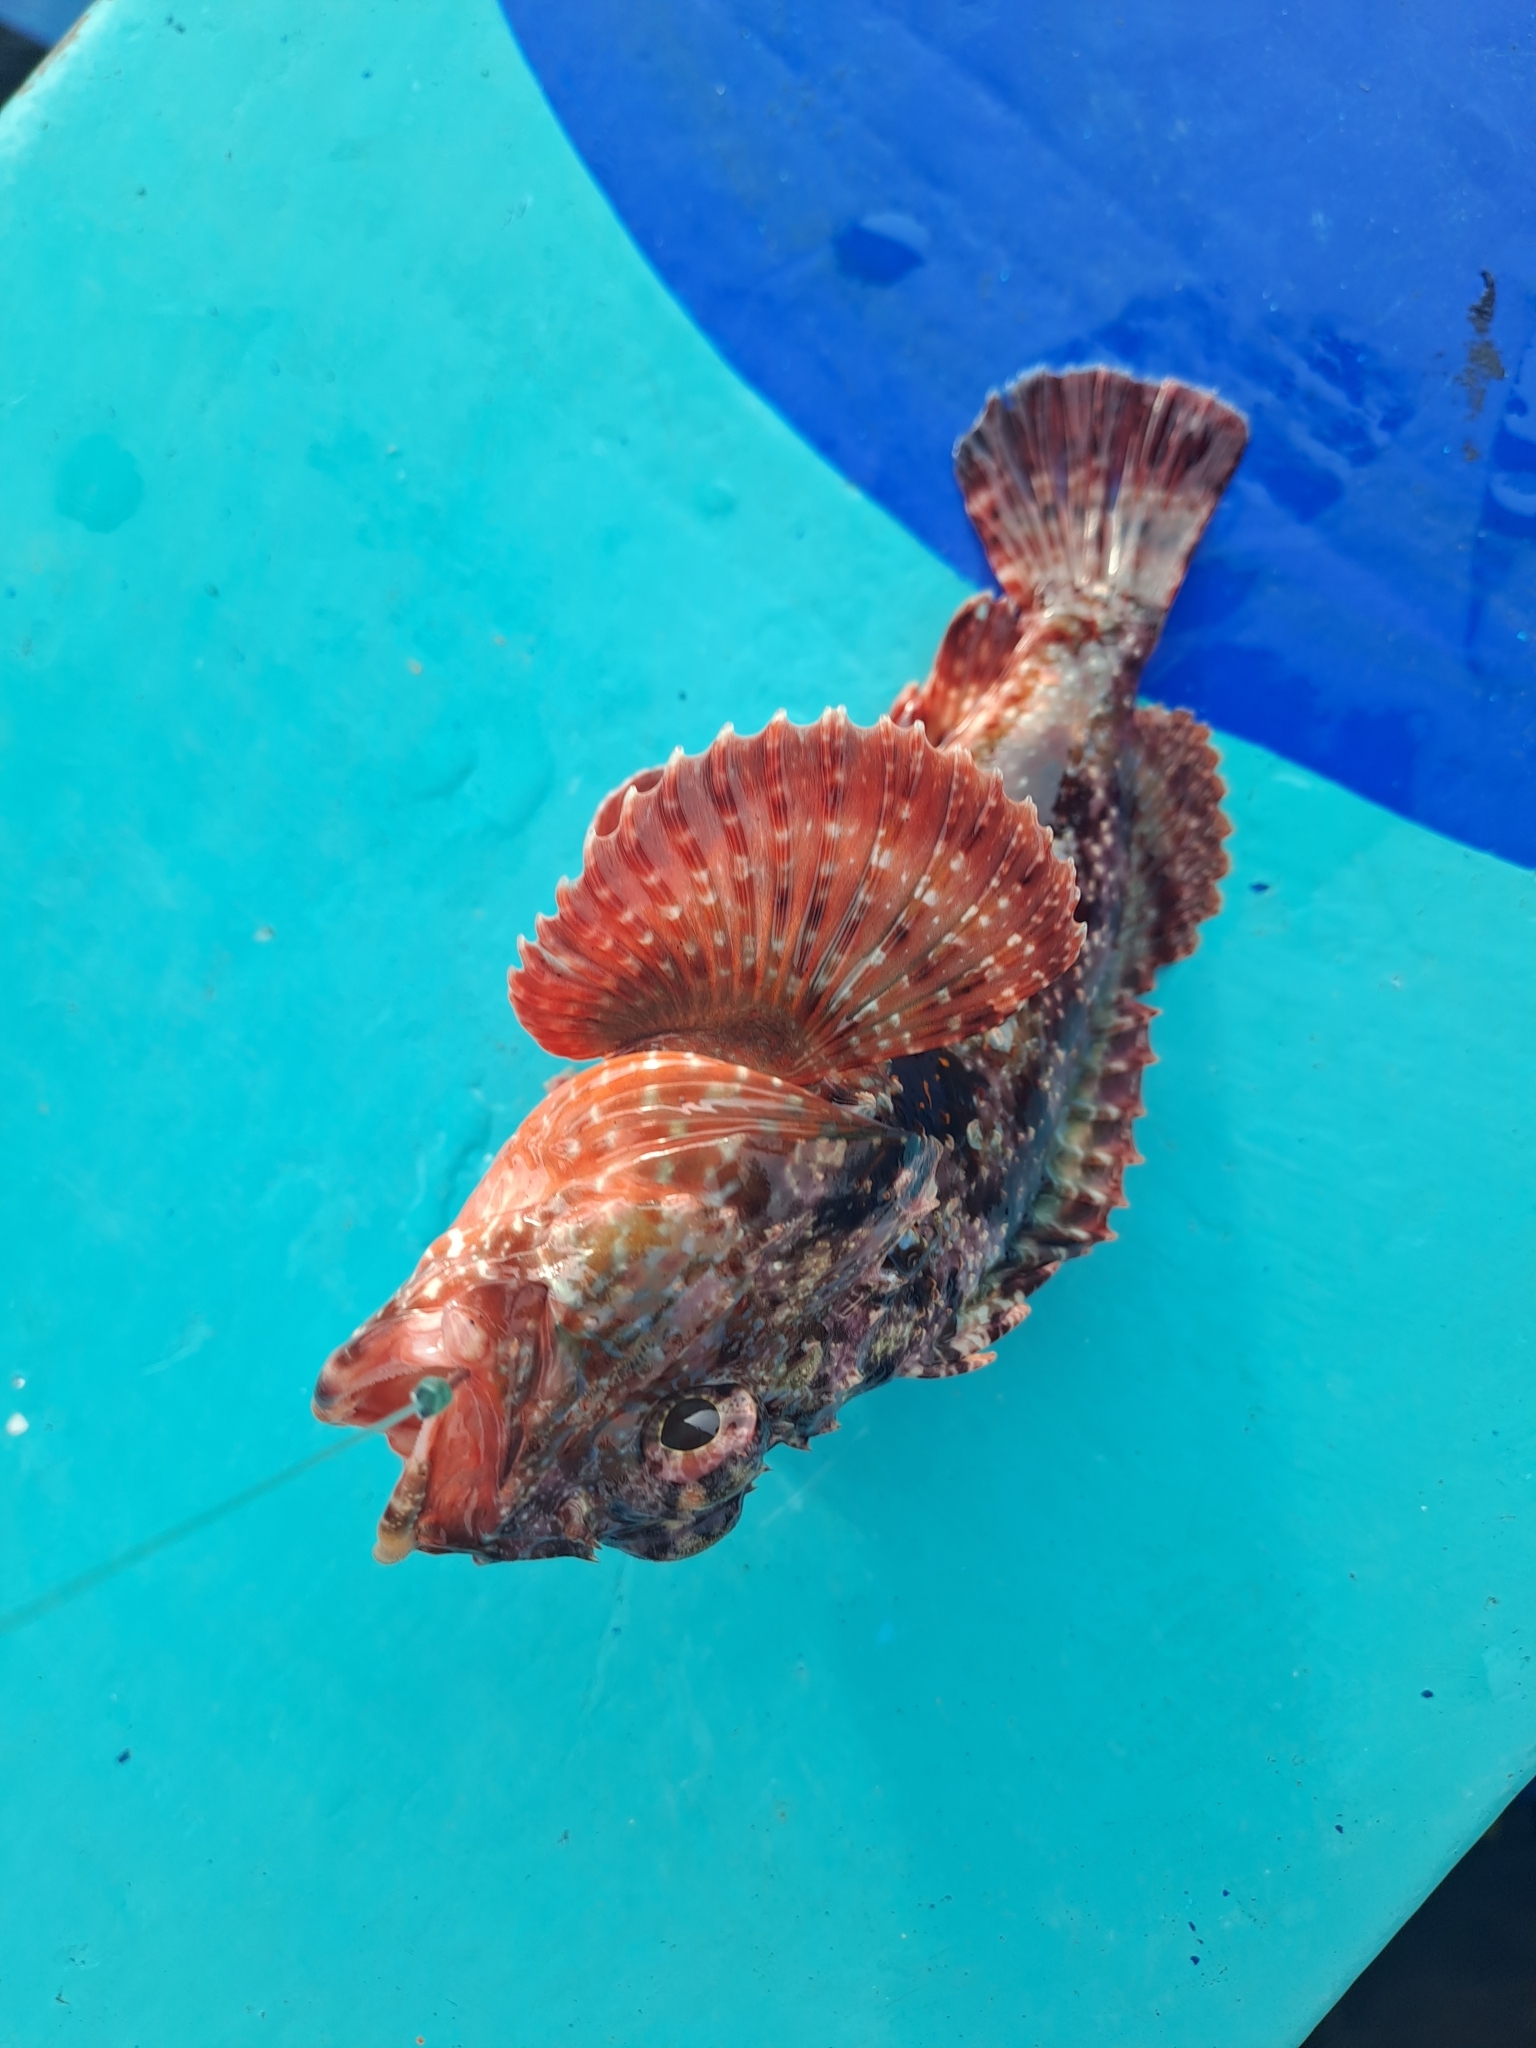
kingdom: Animalia
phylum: Chordata
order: Scorpaeniformes
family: Scorpaenidae
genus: Scorpaena
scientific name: Scorpaena histrio
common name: Player scorpionfish
